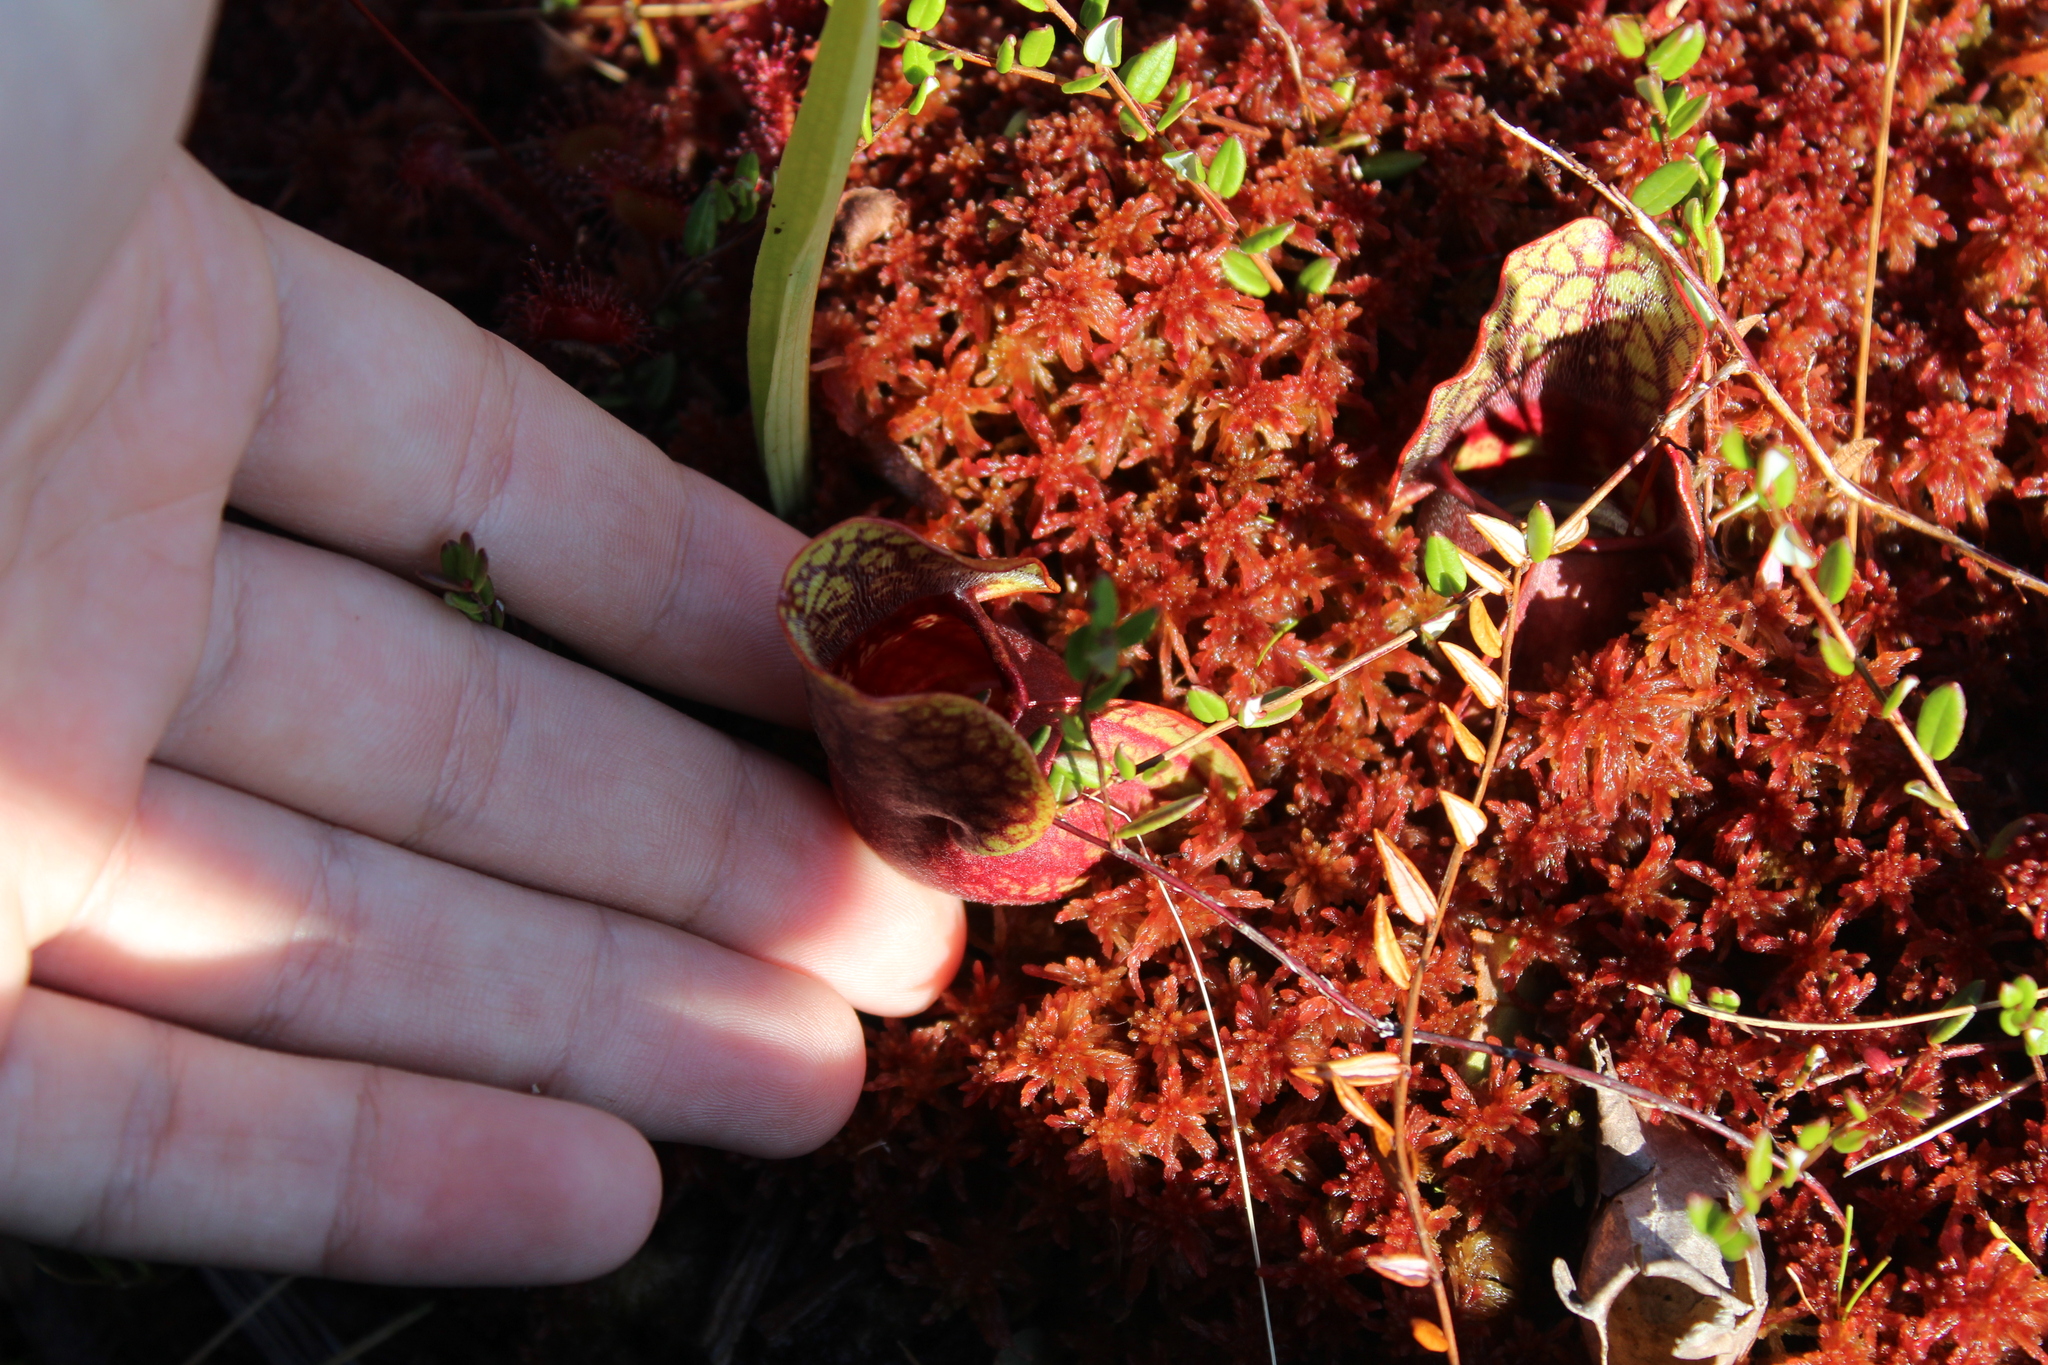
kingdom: Plantae
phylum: Tracheophyta
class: Magnoliopsida
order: Ericales
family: Sarraceniaceae
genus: Sarracenia
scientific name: Sarracenia purpurea
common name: Pitcherplant
